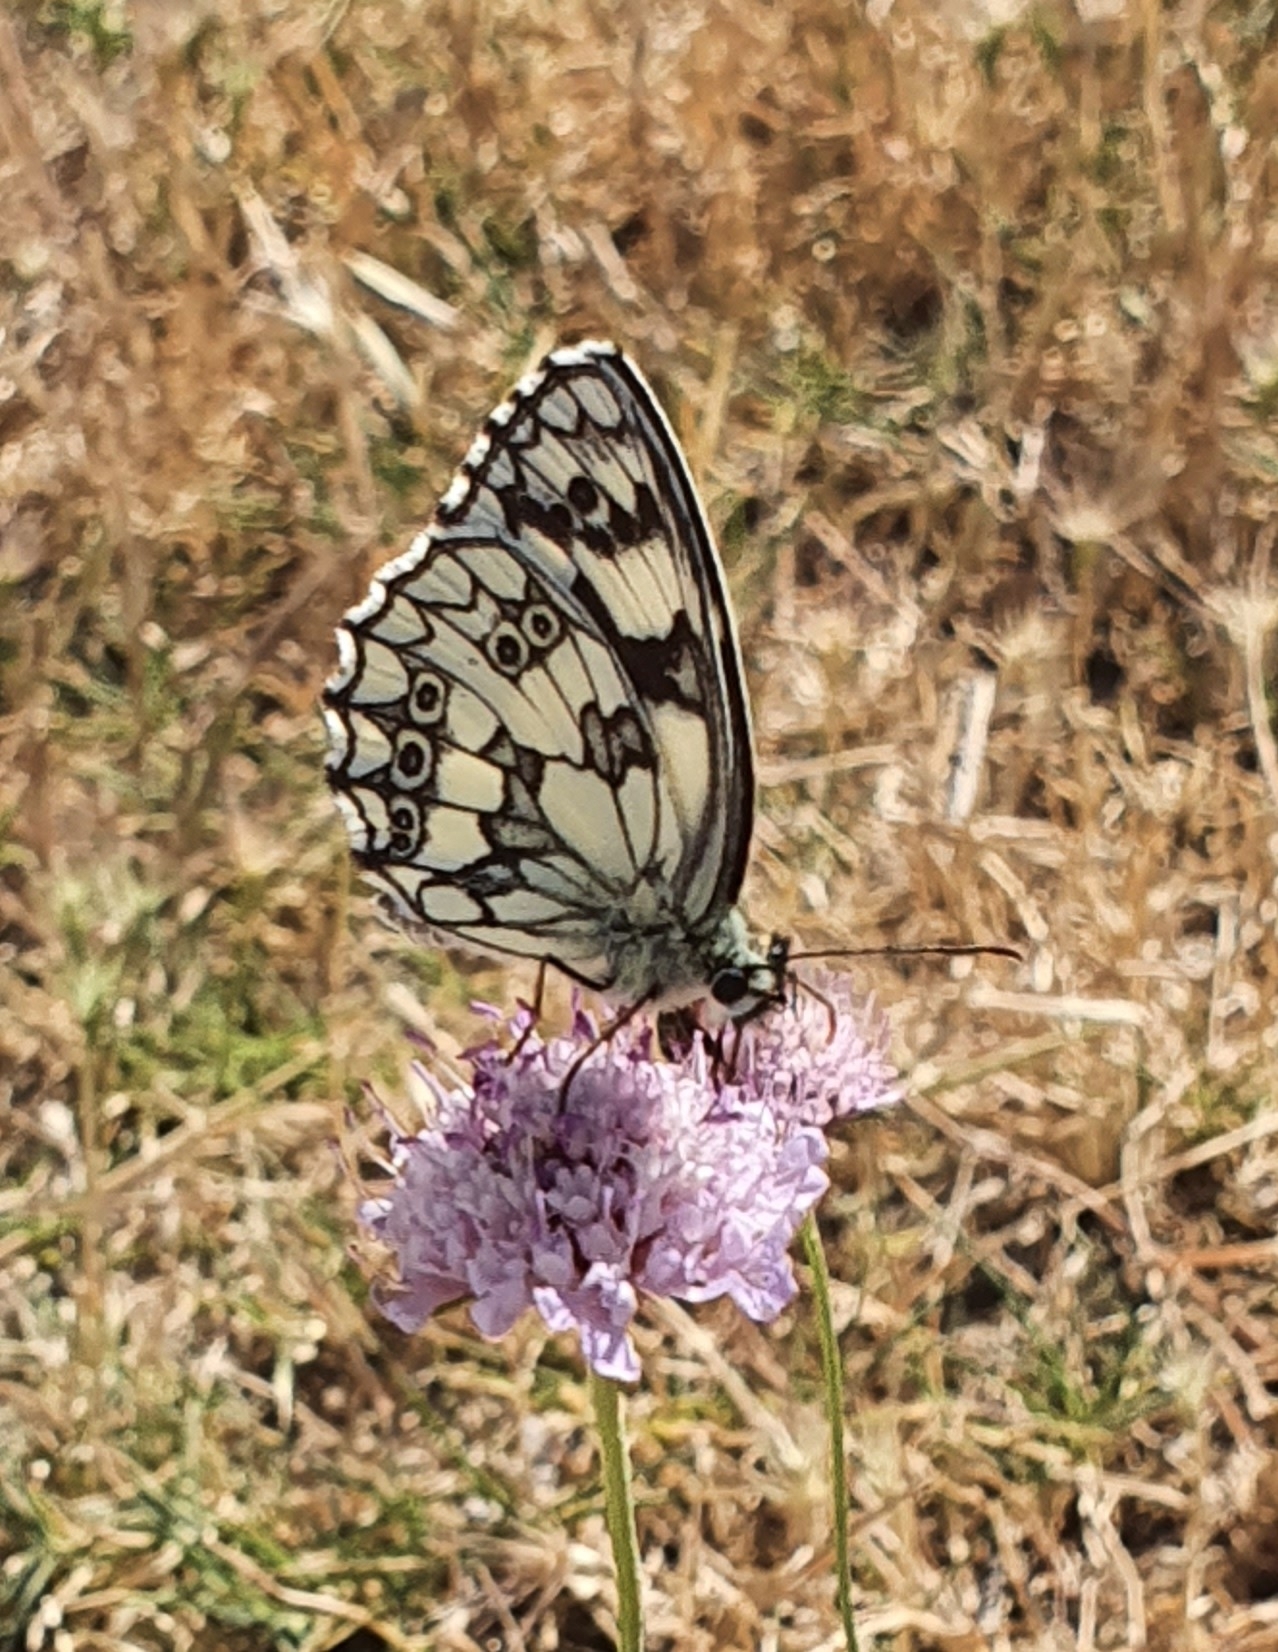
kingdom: Animalia
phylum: Arthropoda
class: Insecta
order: Lepidoptera
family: Nymphalidae
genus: Melanargia
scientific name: Melanargia galathea
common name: Marbled white
